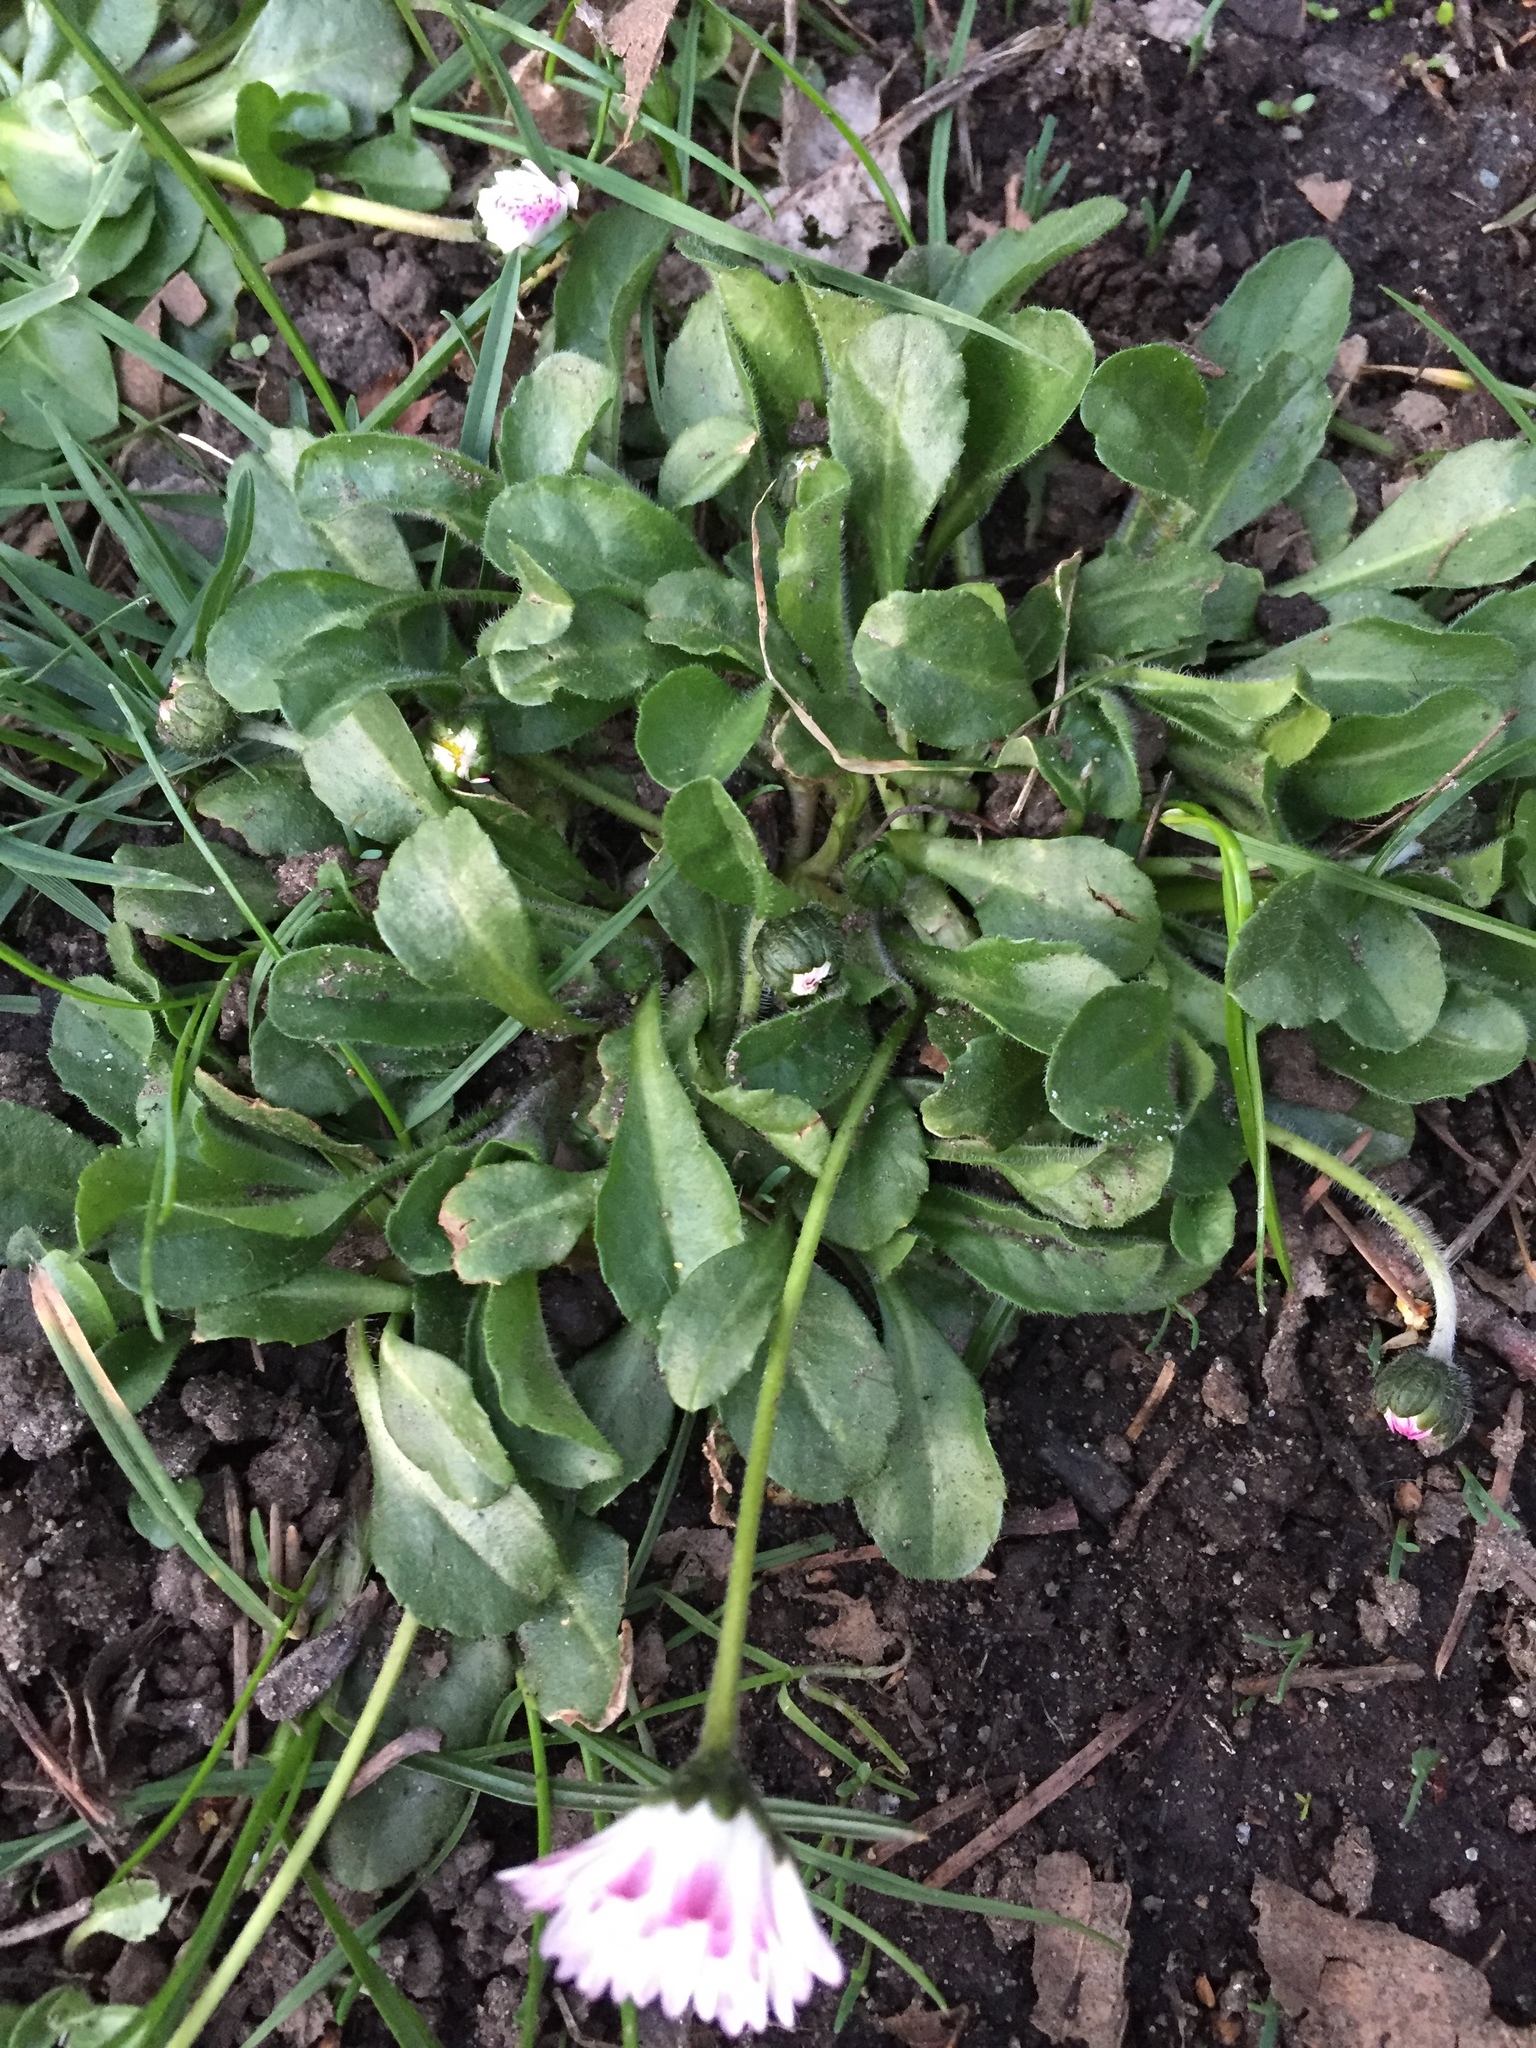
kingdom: Plantae
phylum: Tracheophyta
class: Magnoliopsida
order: Asterales
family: Asteraceae
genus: Bellis
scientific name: Bellis perennis
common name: Lawndaisy
